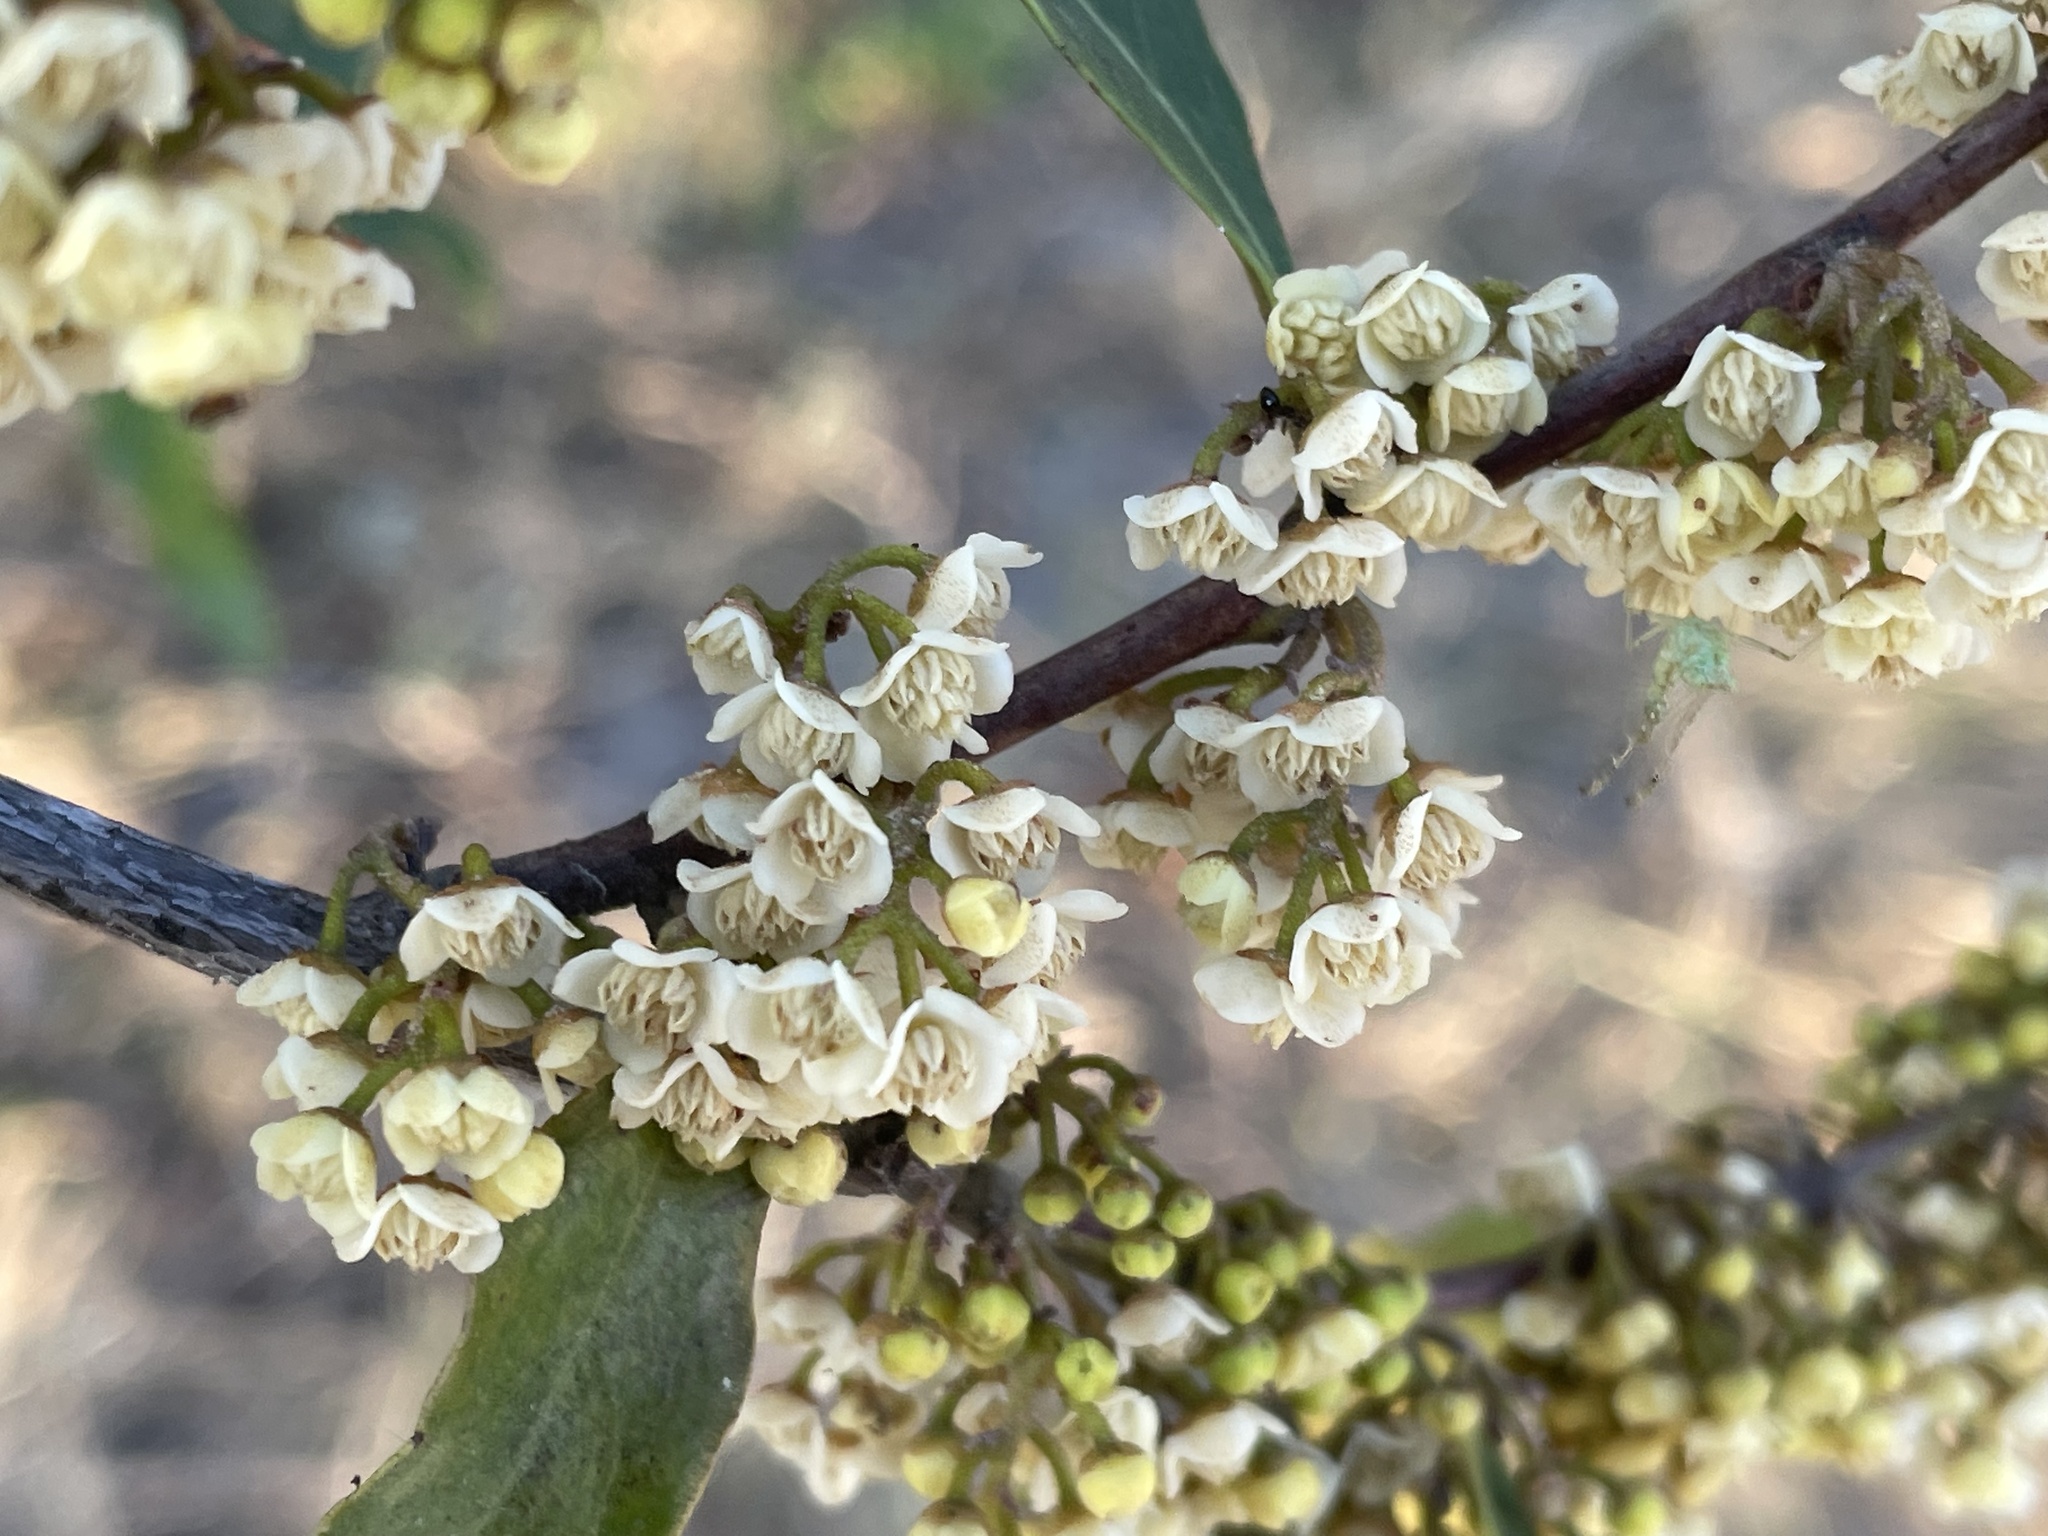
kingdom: Plantae
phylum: Tracheophyta
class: Magnoliopsida
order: Ericales
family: Ebenaceae
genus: Euclea
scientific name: Euclea divinorum
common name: Diamond-leaved euclea
